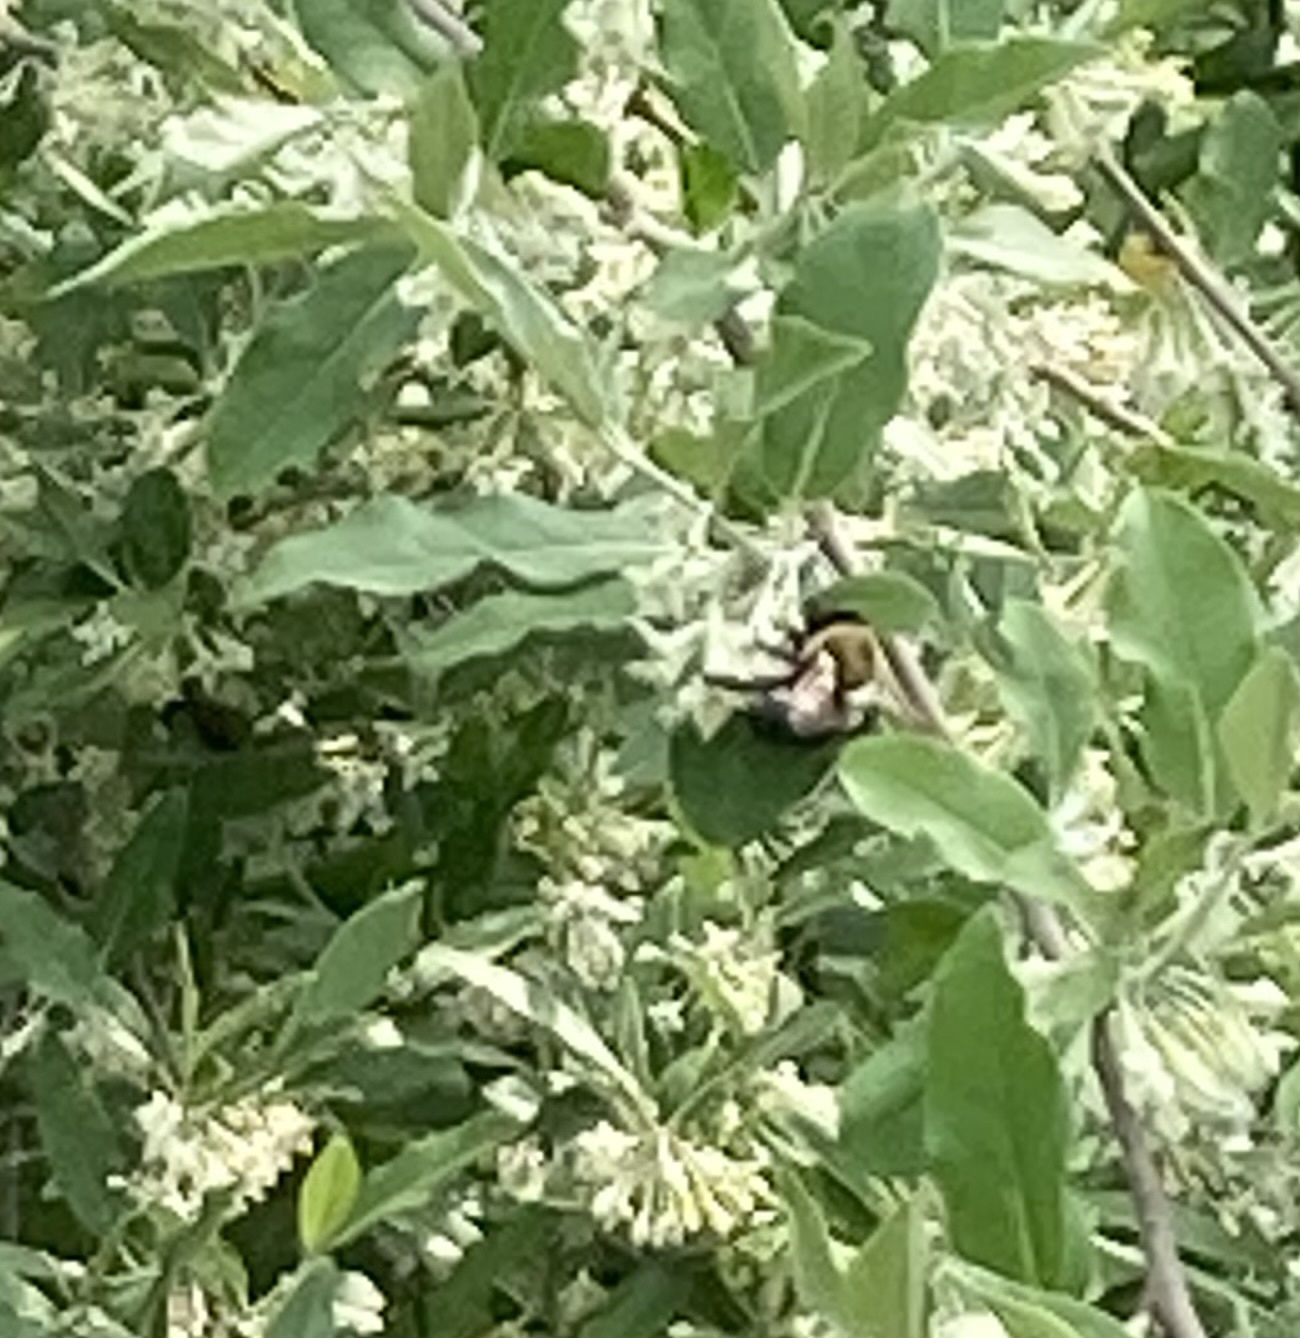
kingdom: Animalia
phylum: Arthropoda
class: Insecta
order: Hymenoptera
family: Apidae
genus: Xylocopa
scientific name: Xylocopa virginica
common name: Carpenter bee
